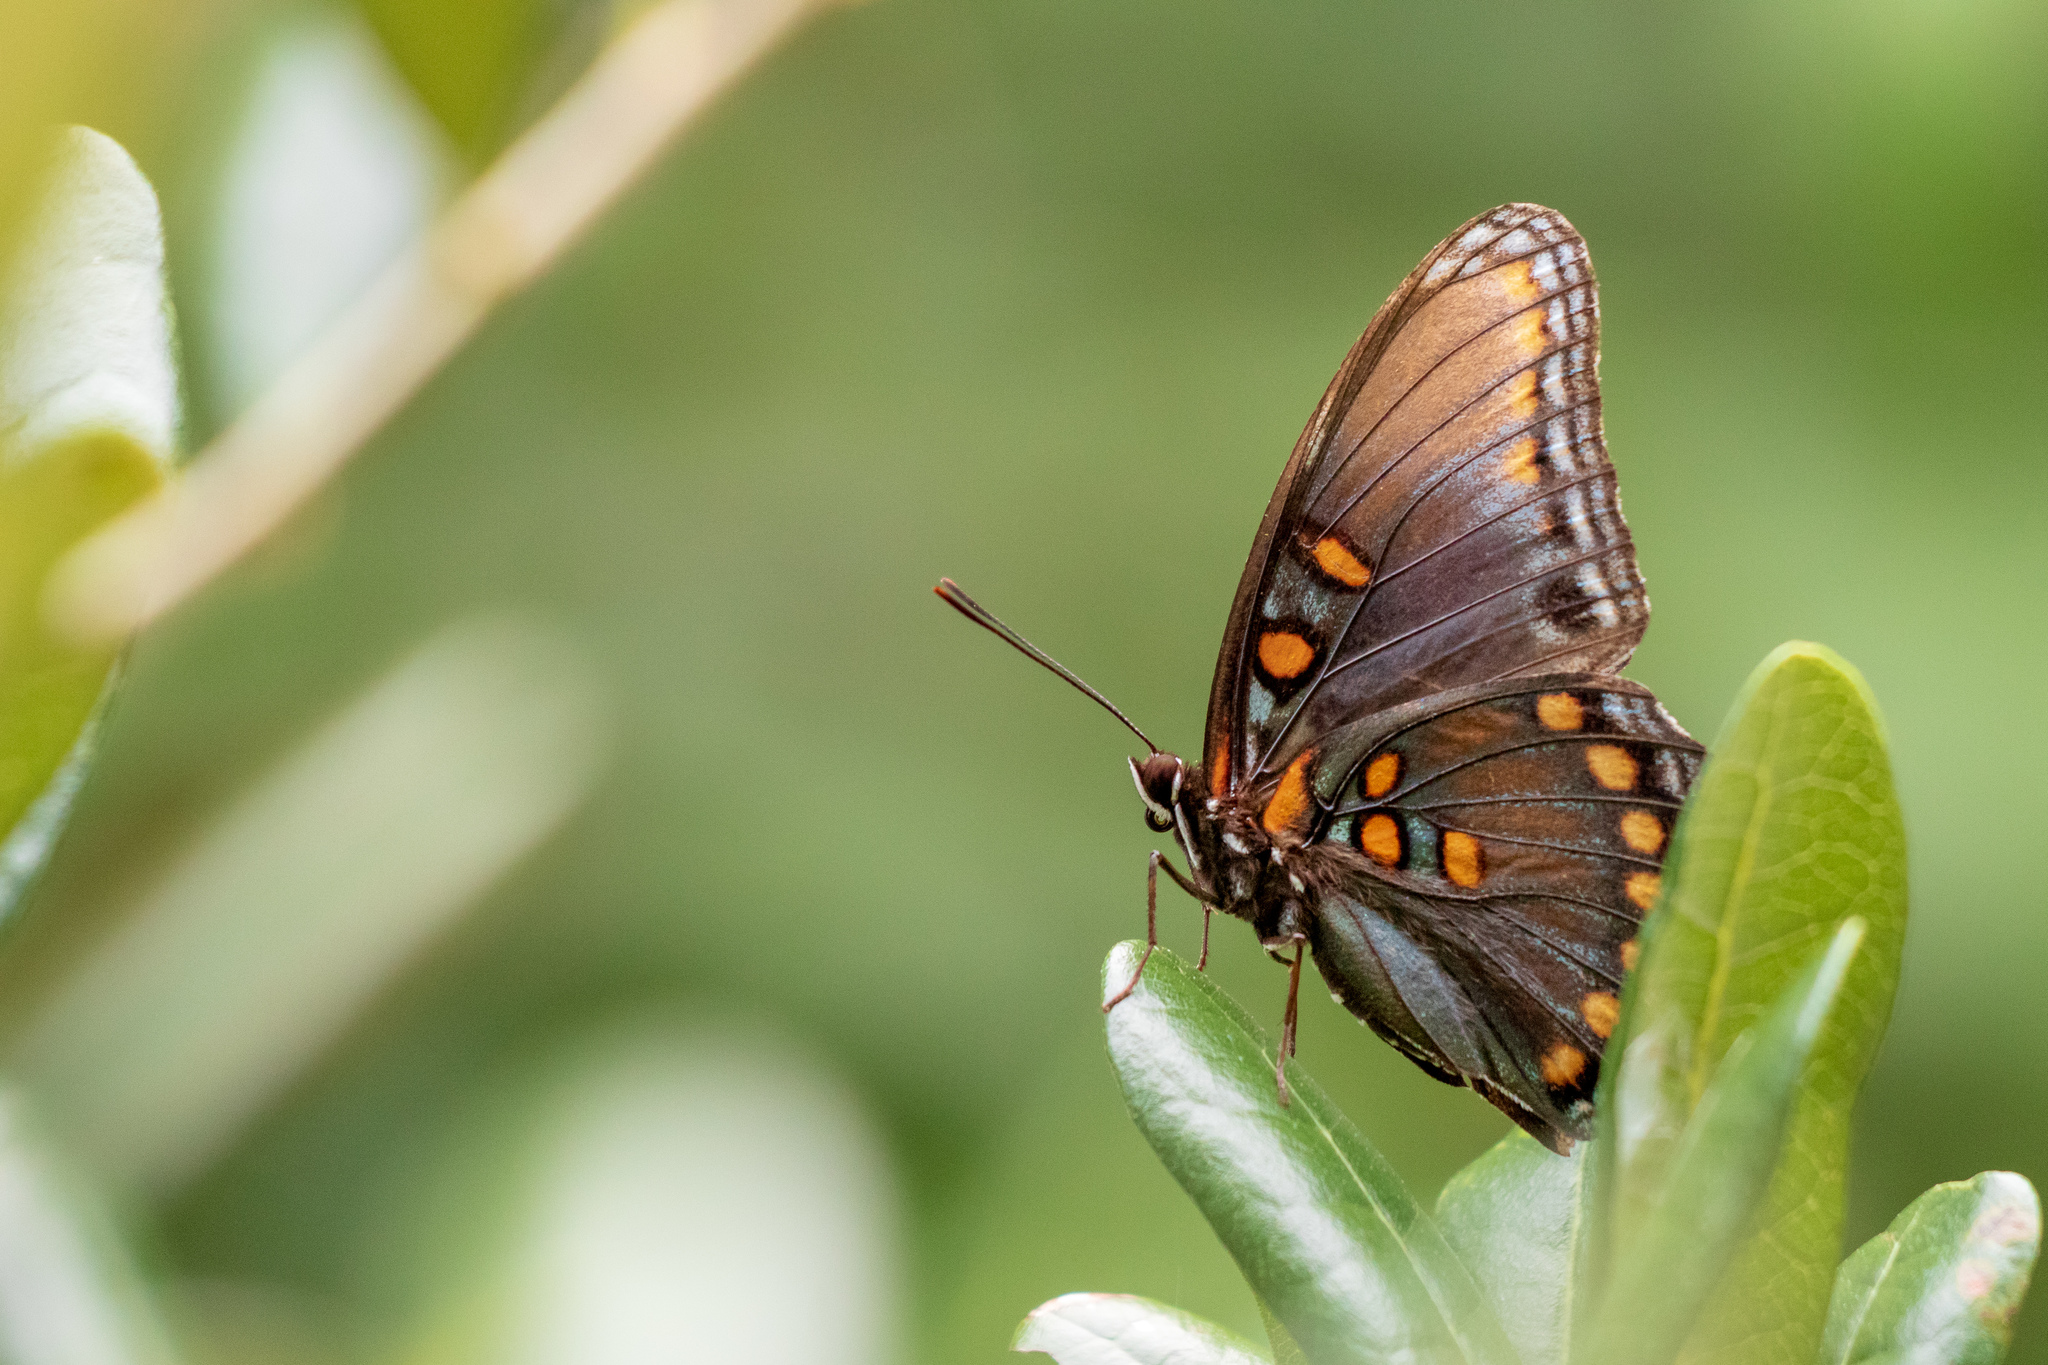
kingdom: Animalia
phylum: Arthropoda
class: Insecta
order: Lepidoptera
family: Nymphalidae
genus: Limenitis
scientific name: Limenitis astyanax
